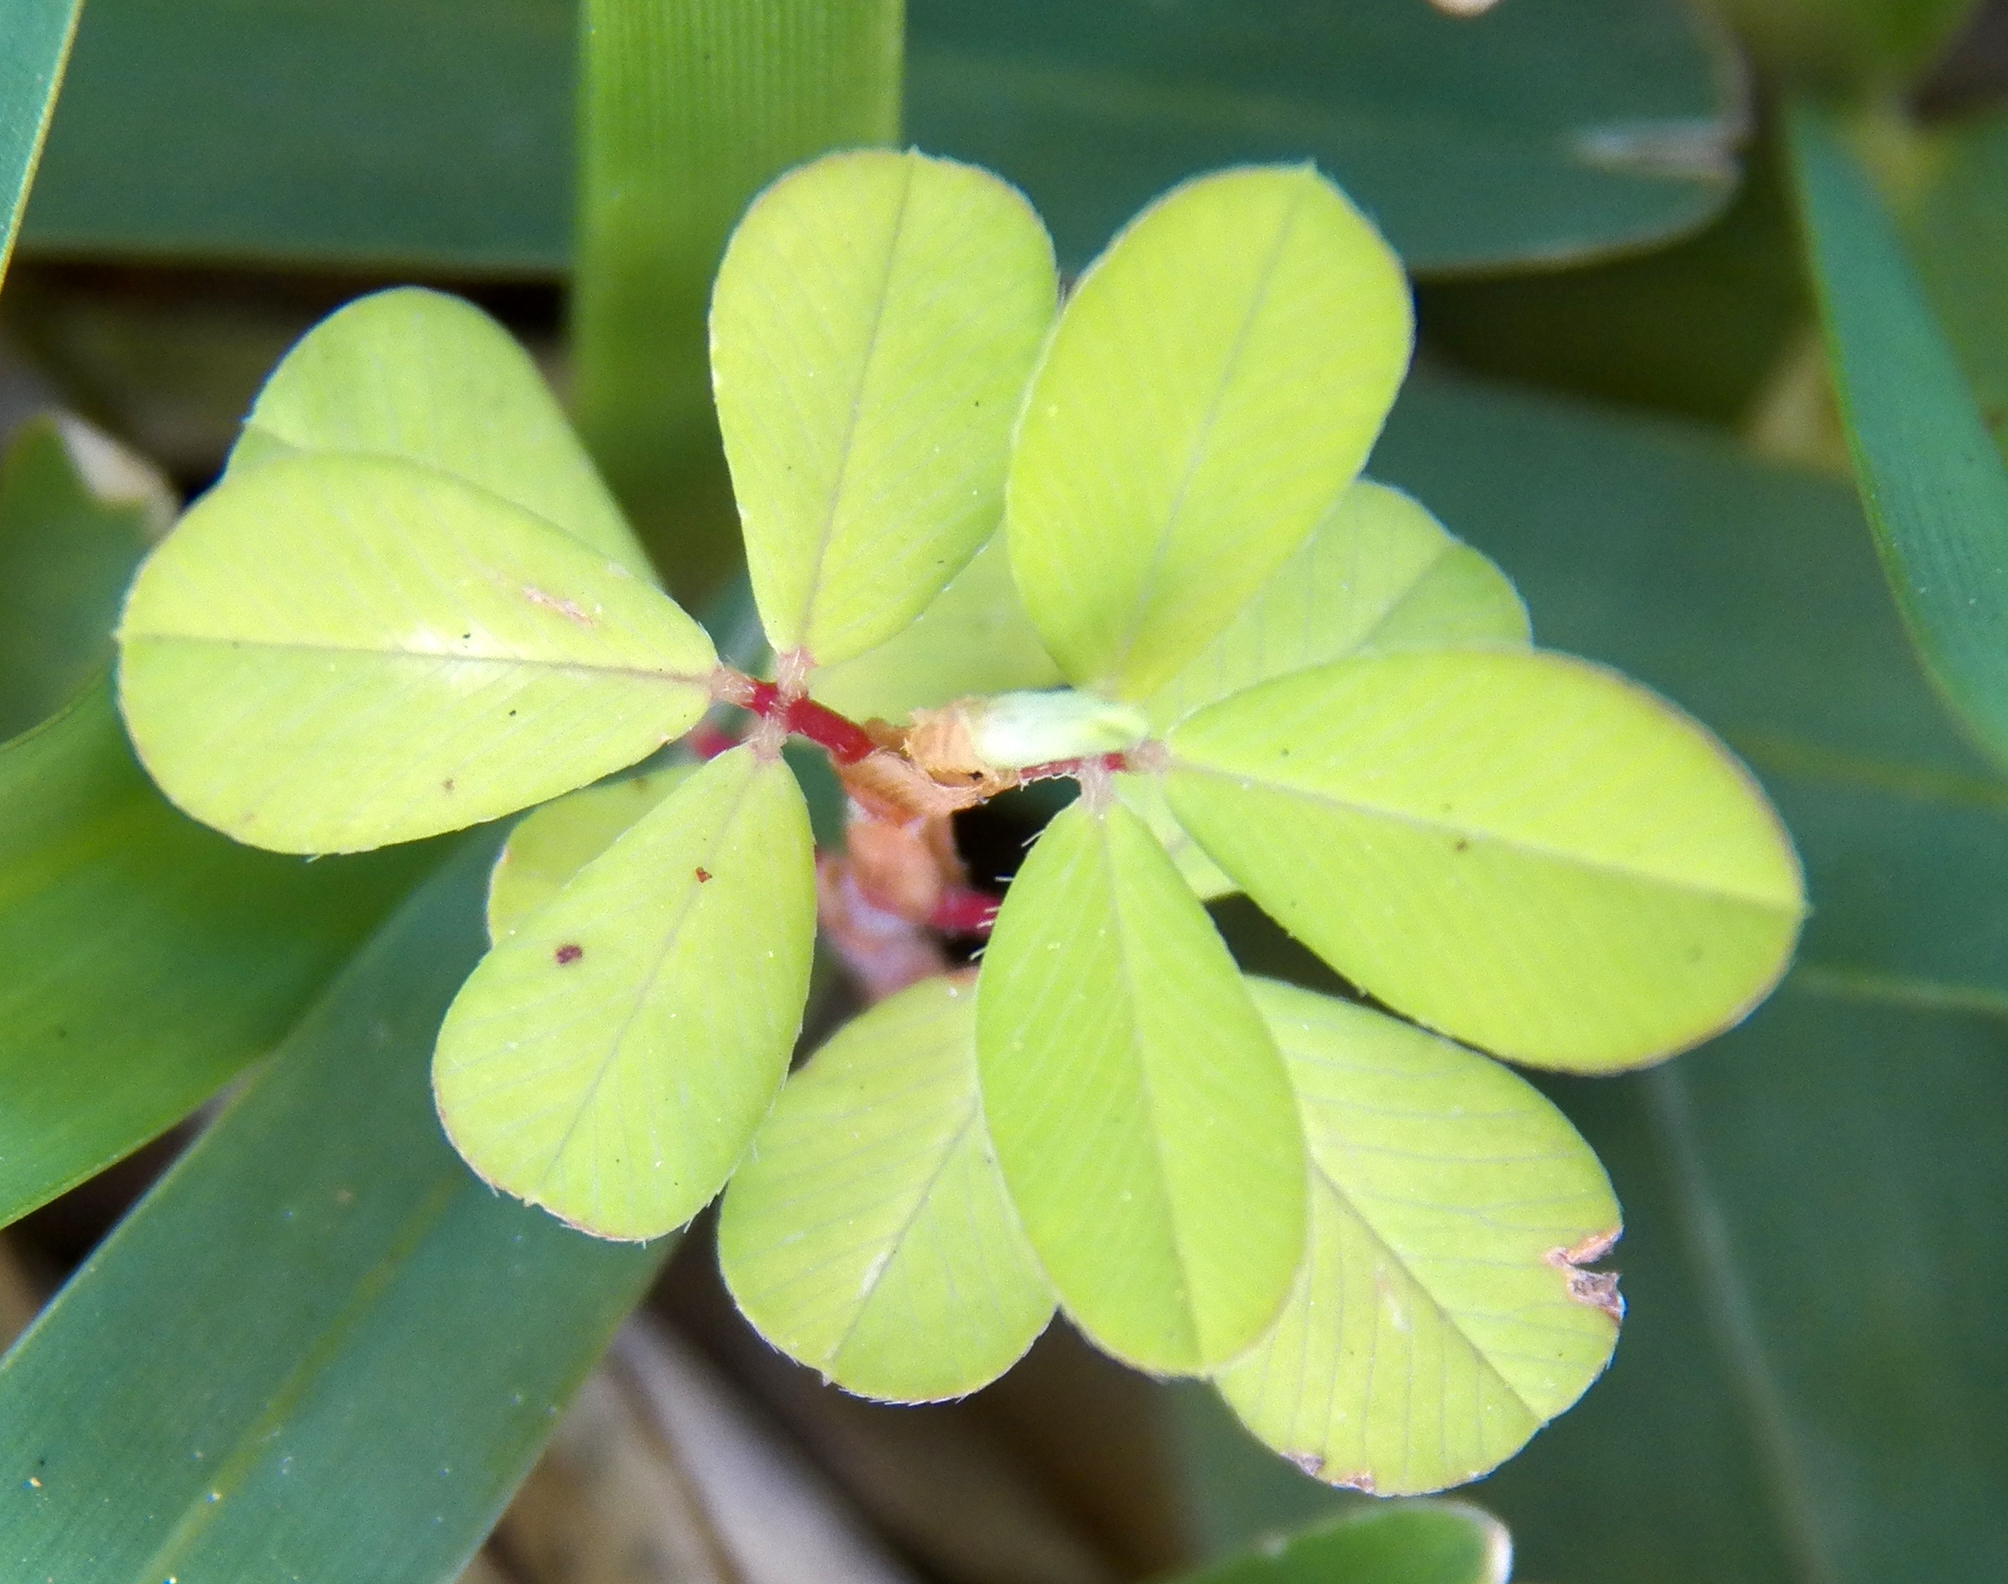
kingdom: Plantae
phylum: Tracheophyta
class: Magnoliopsida
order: Fabales
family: Fabaceae
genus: Kummerowia
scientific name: Kummerowia striata
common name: Japanese clover
